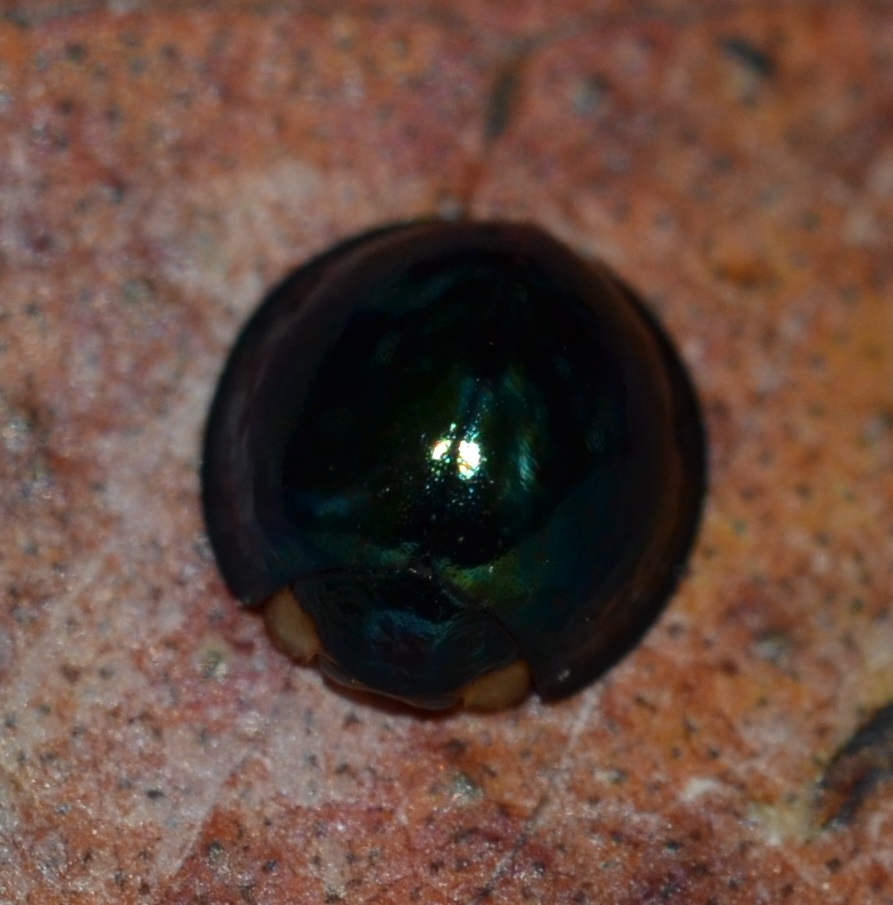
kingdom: Animalia
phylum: Arthropoda
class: Insecta
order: Coleoptera
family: Coccinellidae
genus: Halmus
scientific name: Halmus chalybeus
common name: Steel blue ladybird beetle
